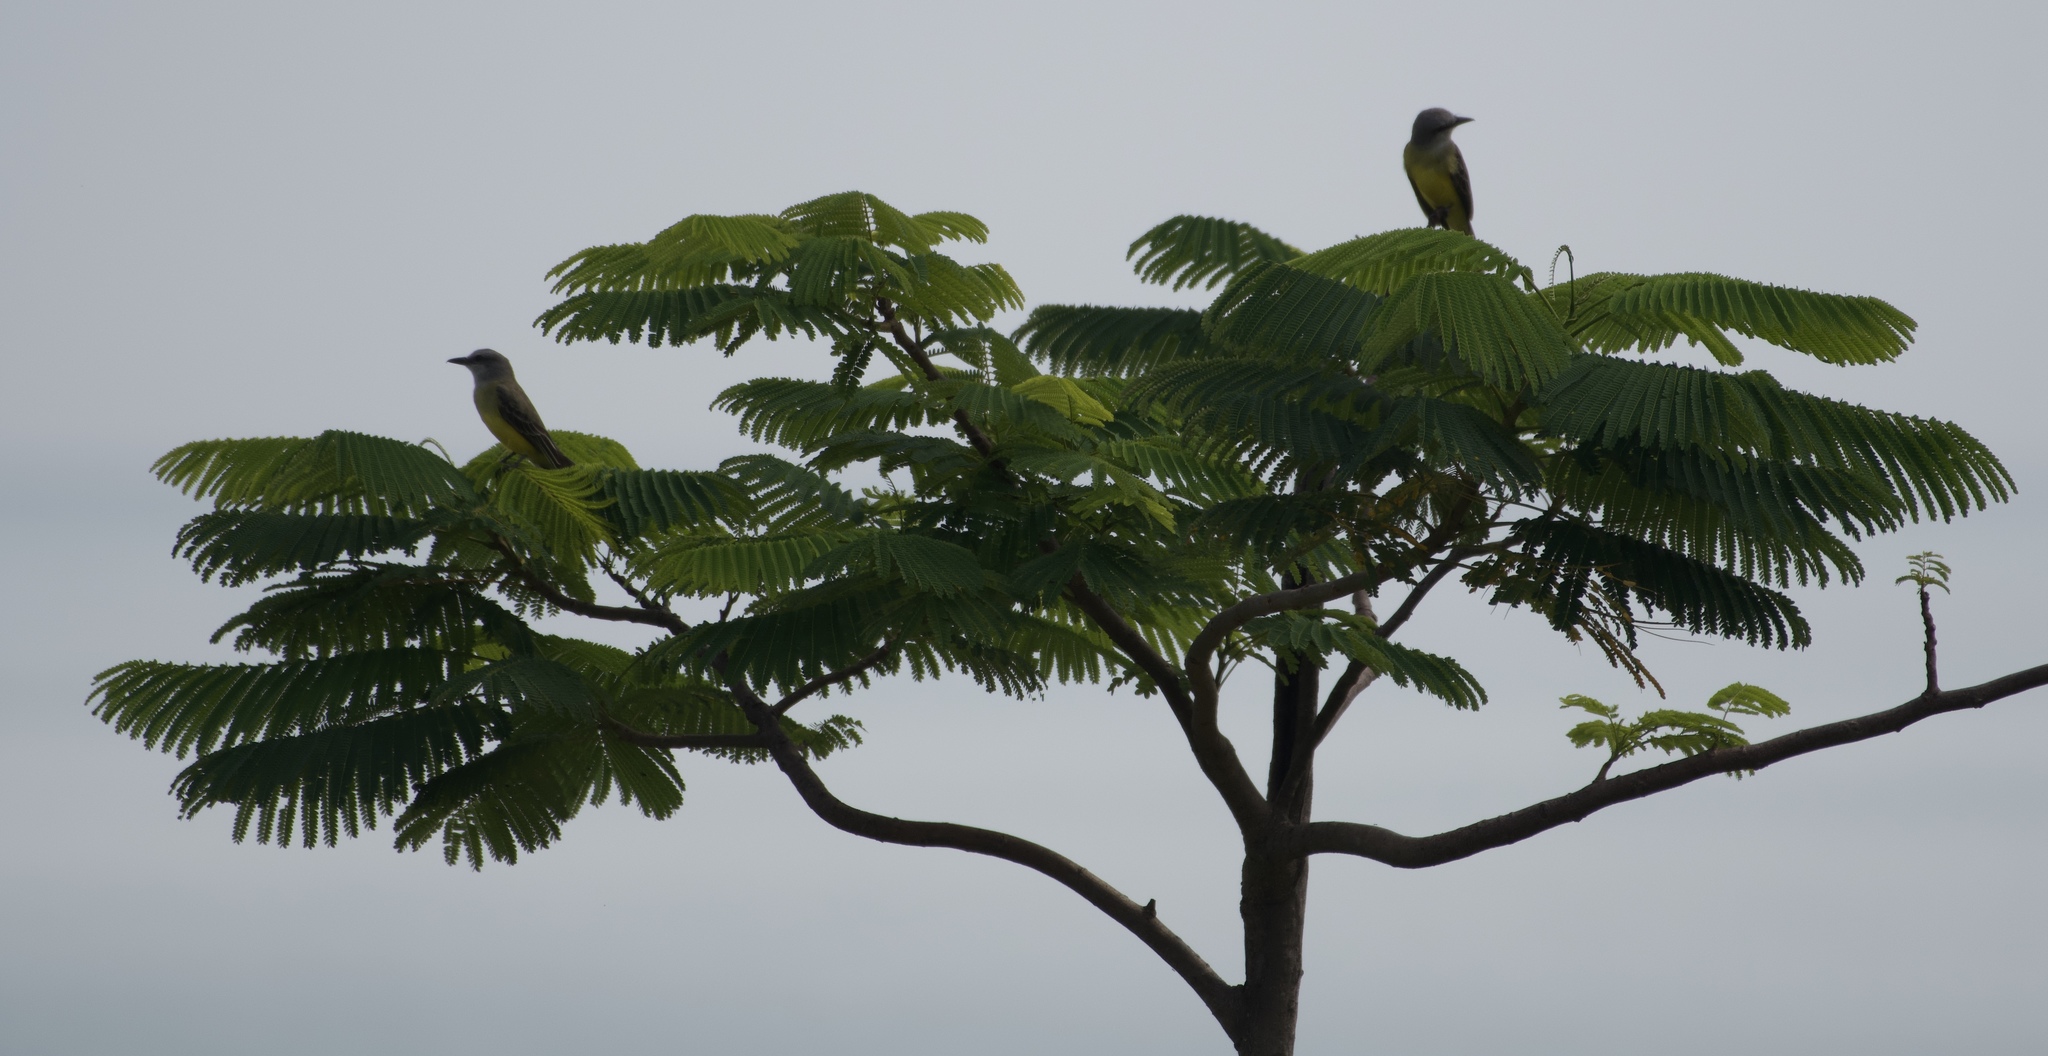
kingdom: Animalia
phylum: Chordata
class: Aves
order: Passeriformes
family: Tyrannidae
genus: Tyrannus
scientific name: Tyrannus melancholicus
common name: Tropical kingbird
